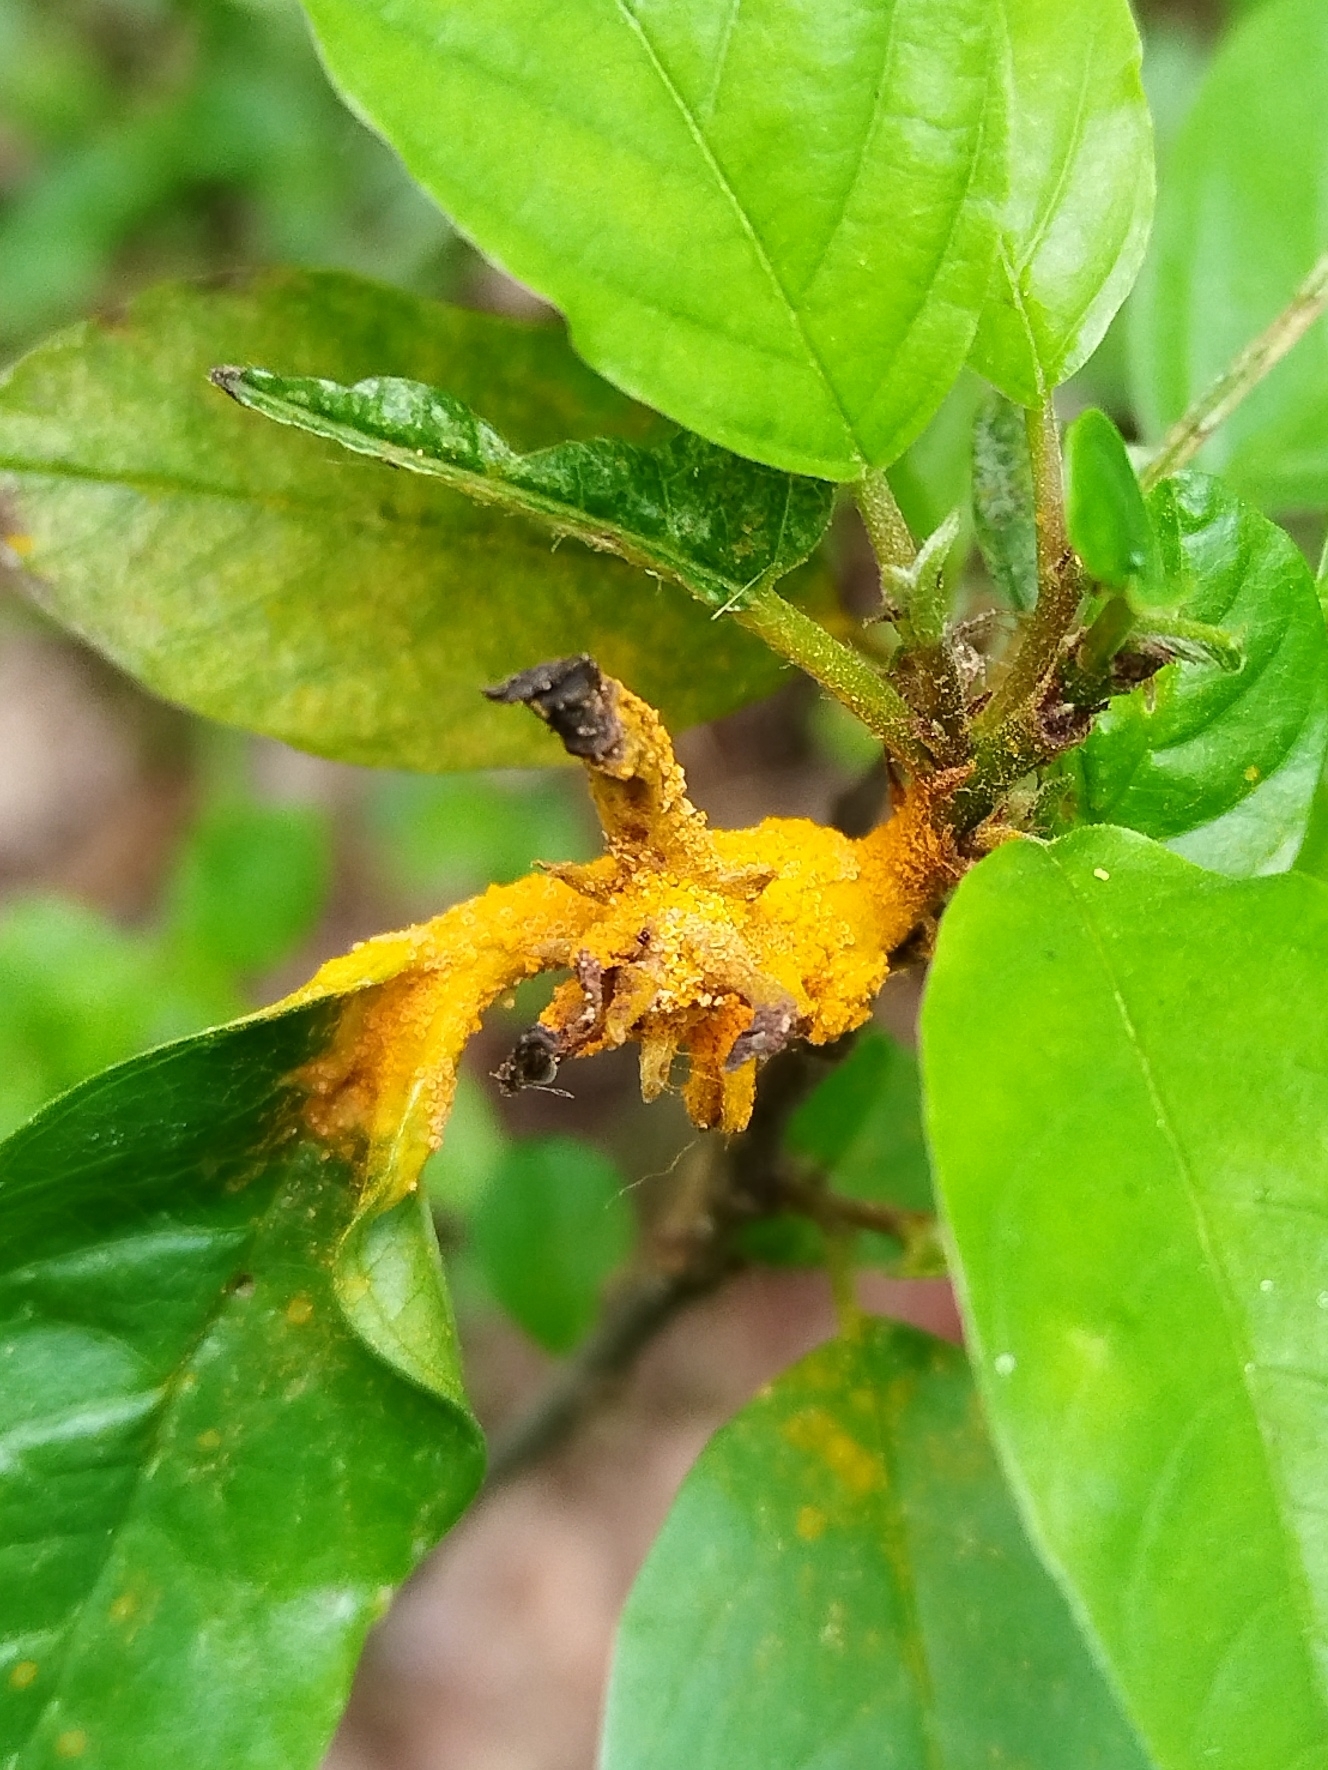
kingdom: Fungi
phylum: Basidiomycota
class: Pucciniomycetes
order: Pucciniales
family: Pucciniaceae
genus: Puccinia
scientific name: Puccinia coronata
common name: Crown rust
